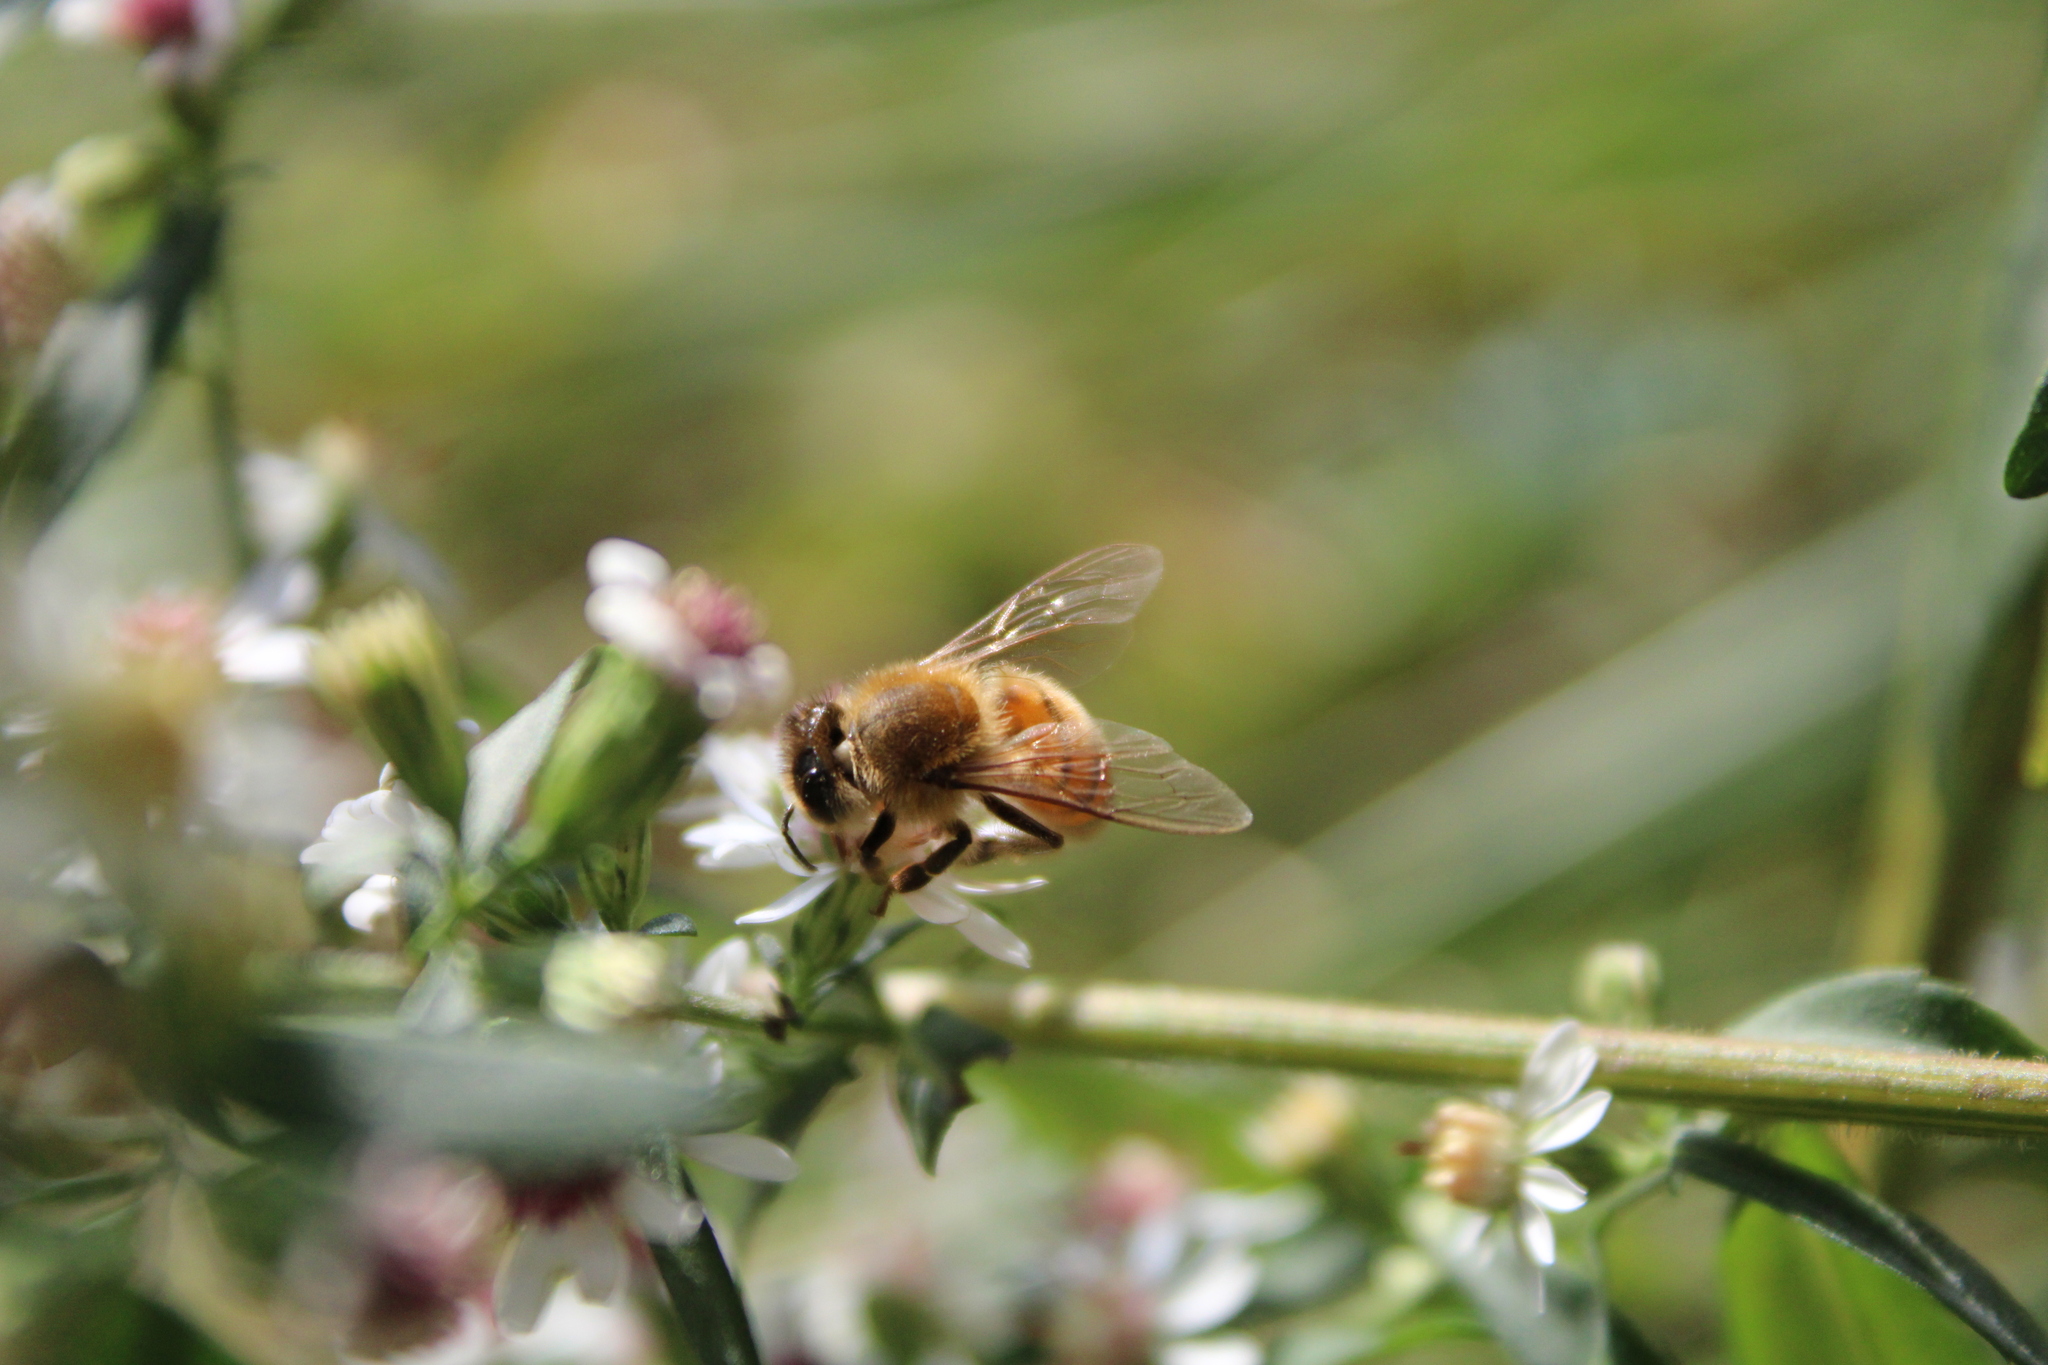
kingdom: Animalia
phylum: Arthropoda
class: Insecta
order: Hymenoptera
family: Apidae
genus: Apis
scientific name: Apis mellifera
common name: Honey bee
